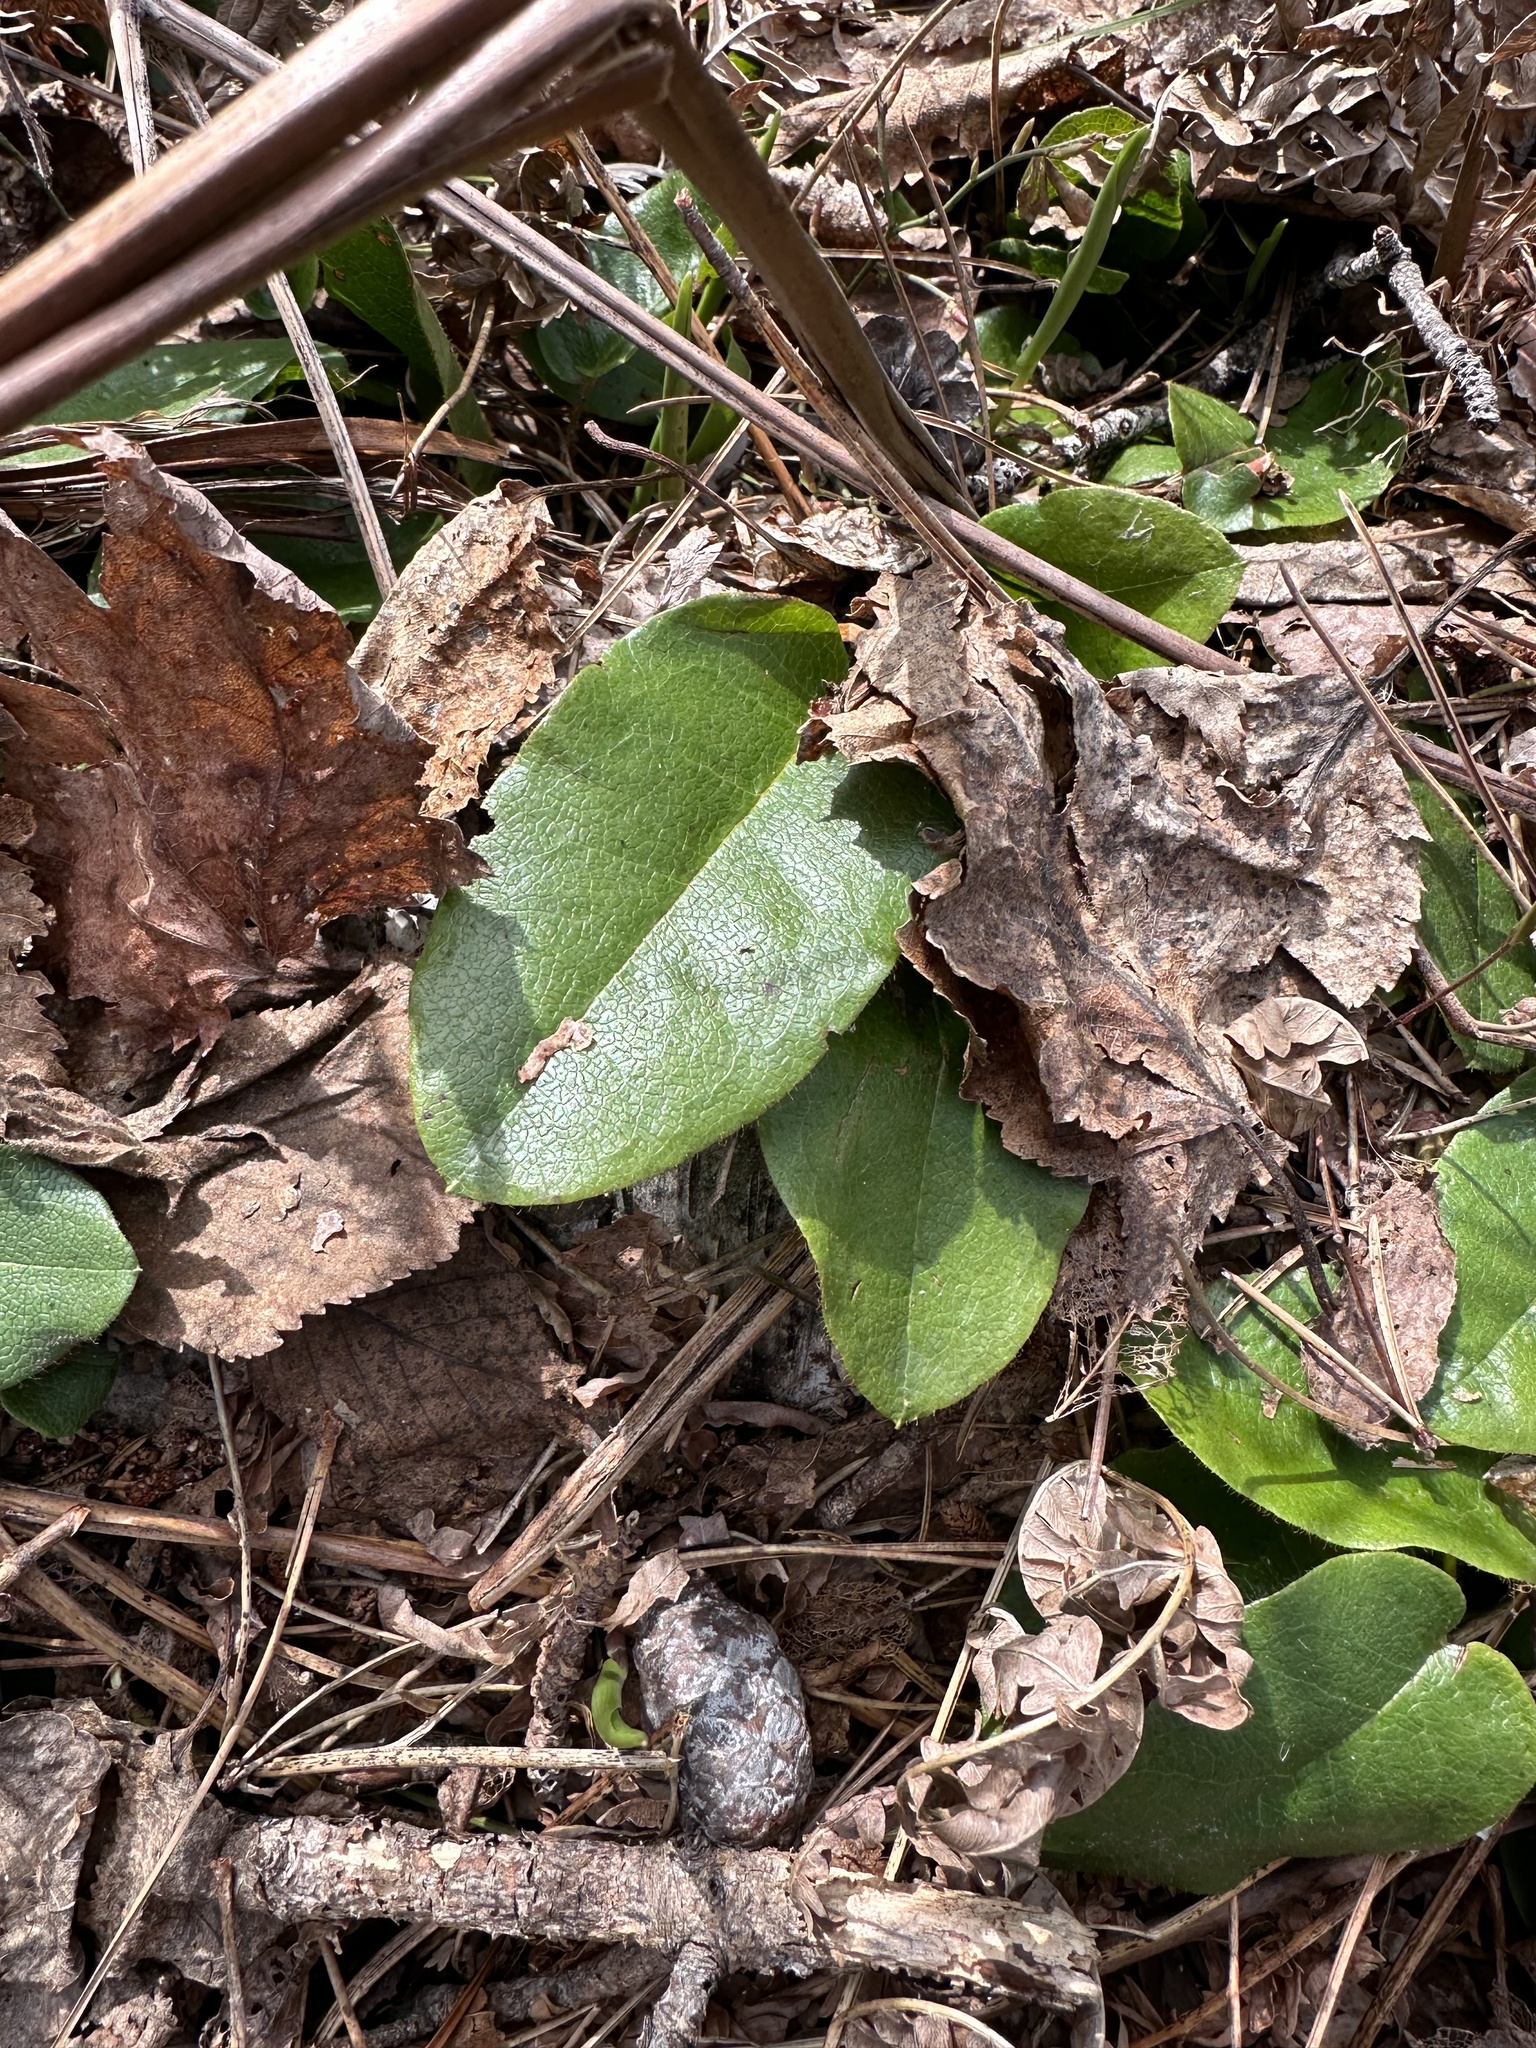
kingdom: Plantae
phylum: Tracheophyta
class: Magnoliopsida
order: Ericales
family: Ericaceae
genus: Epigaea
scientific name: Epigaea repens
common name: Gravelroot
